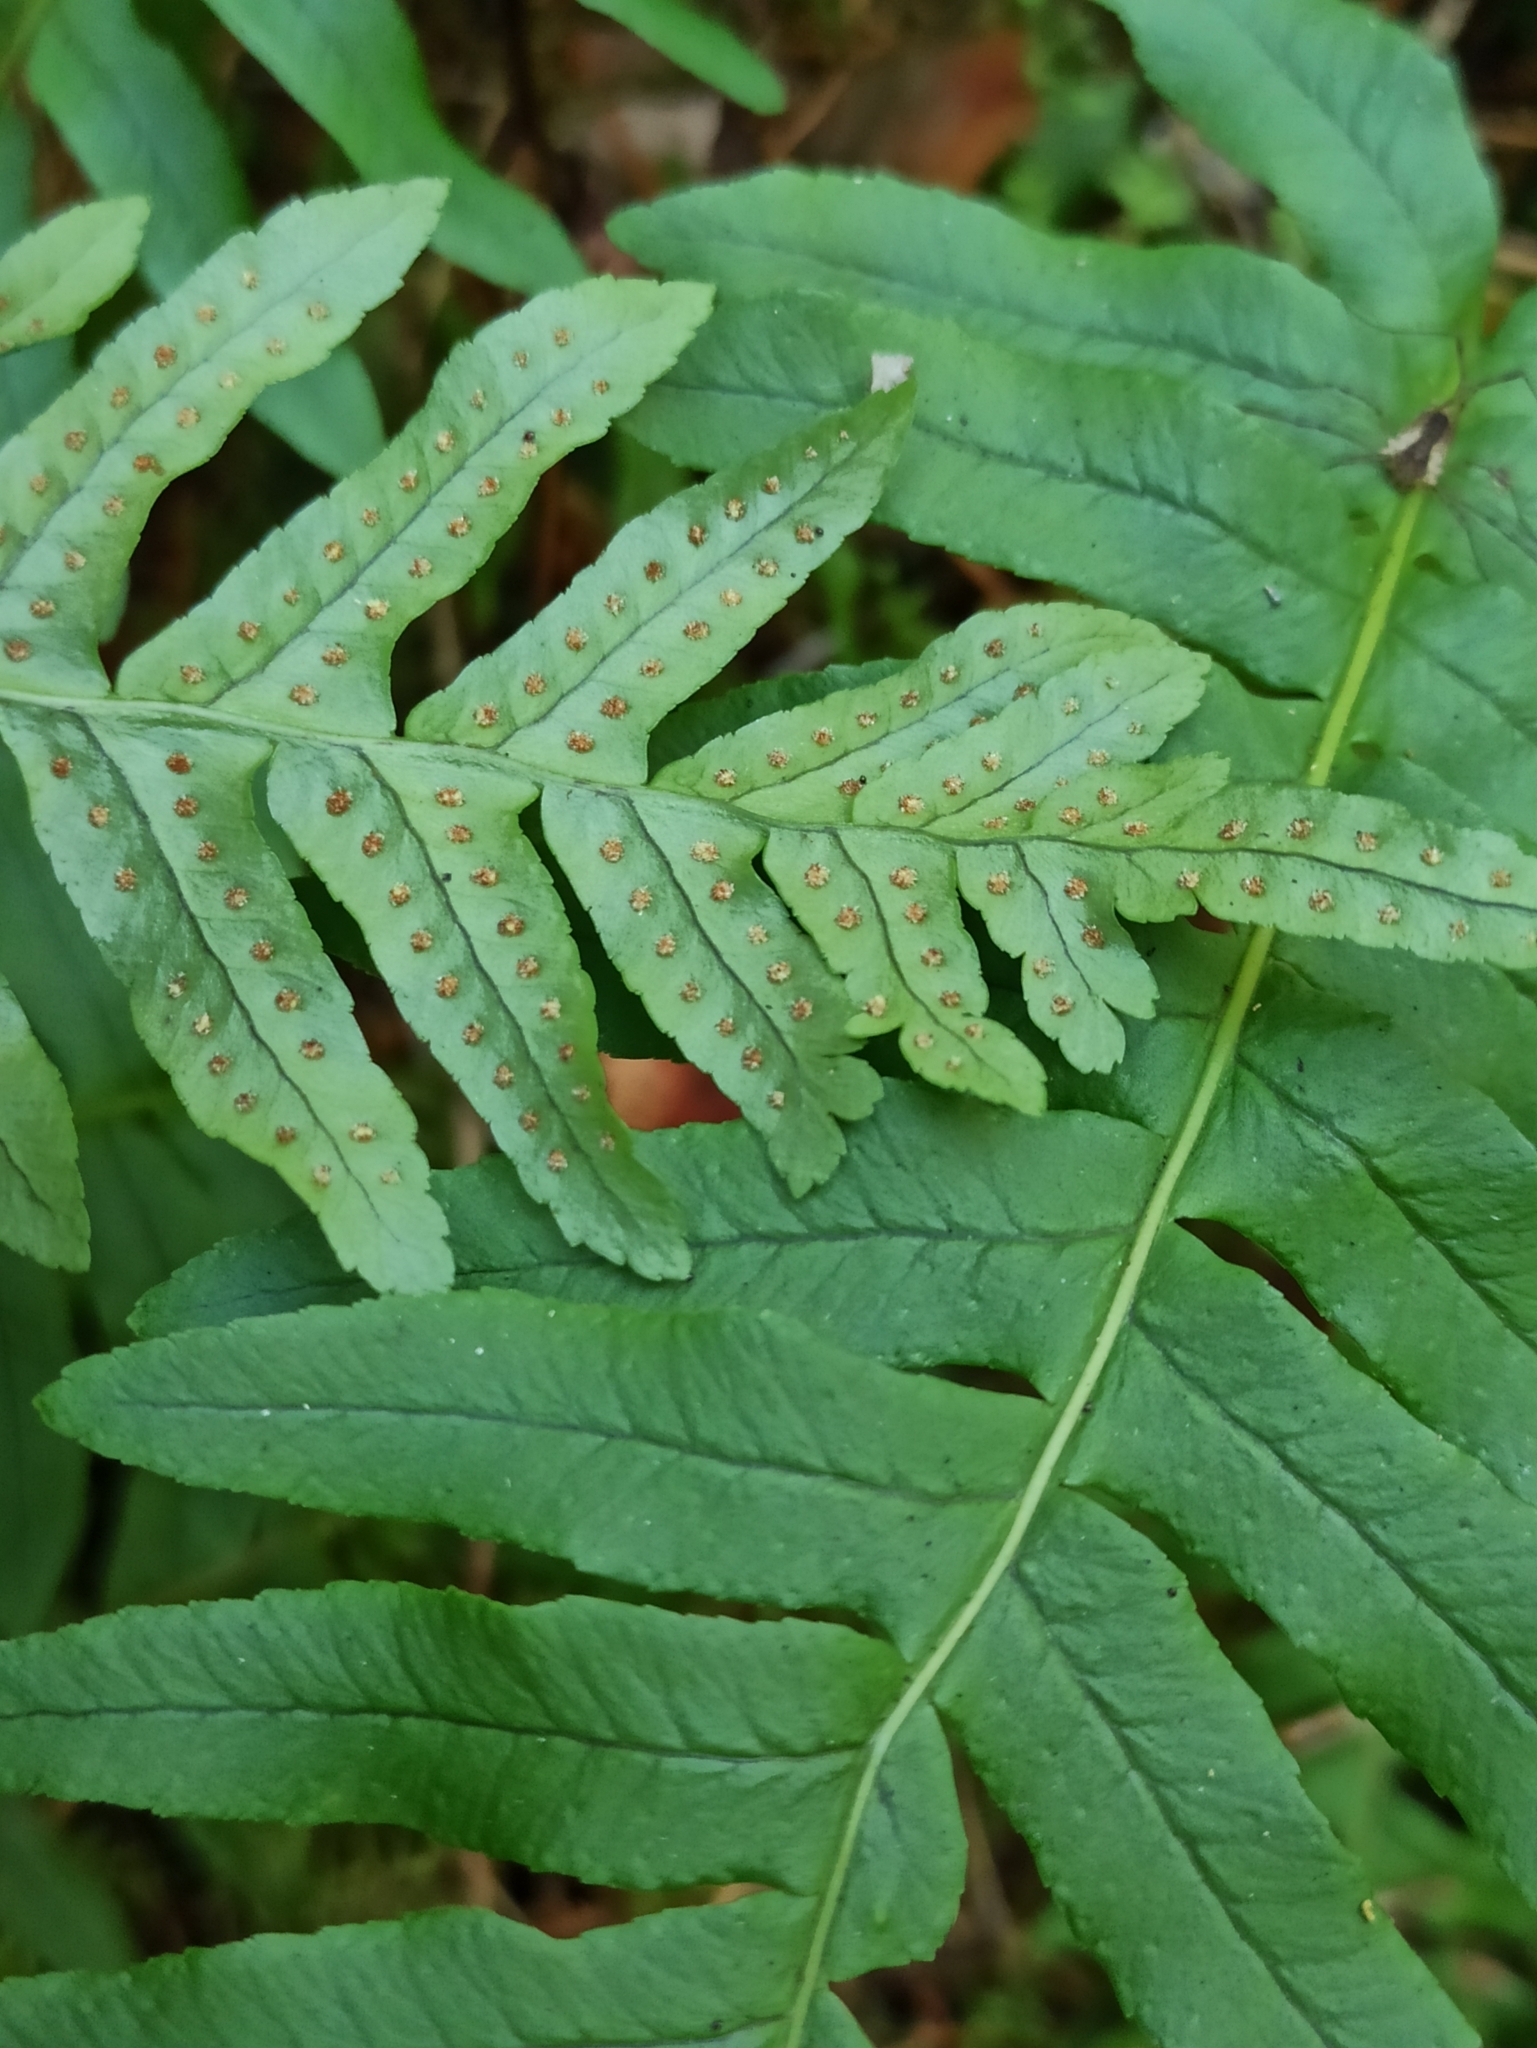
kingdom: Plantae
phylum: Tracheophyta
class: Polypodiopsida
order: Polypodiales
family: Polypodiaceae
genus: Polypodium
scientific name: Polypodium vulgare
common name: Common polypody
